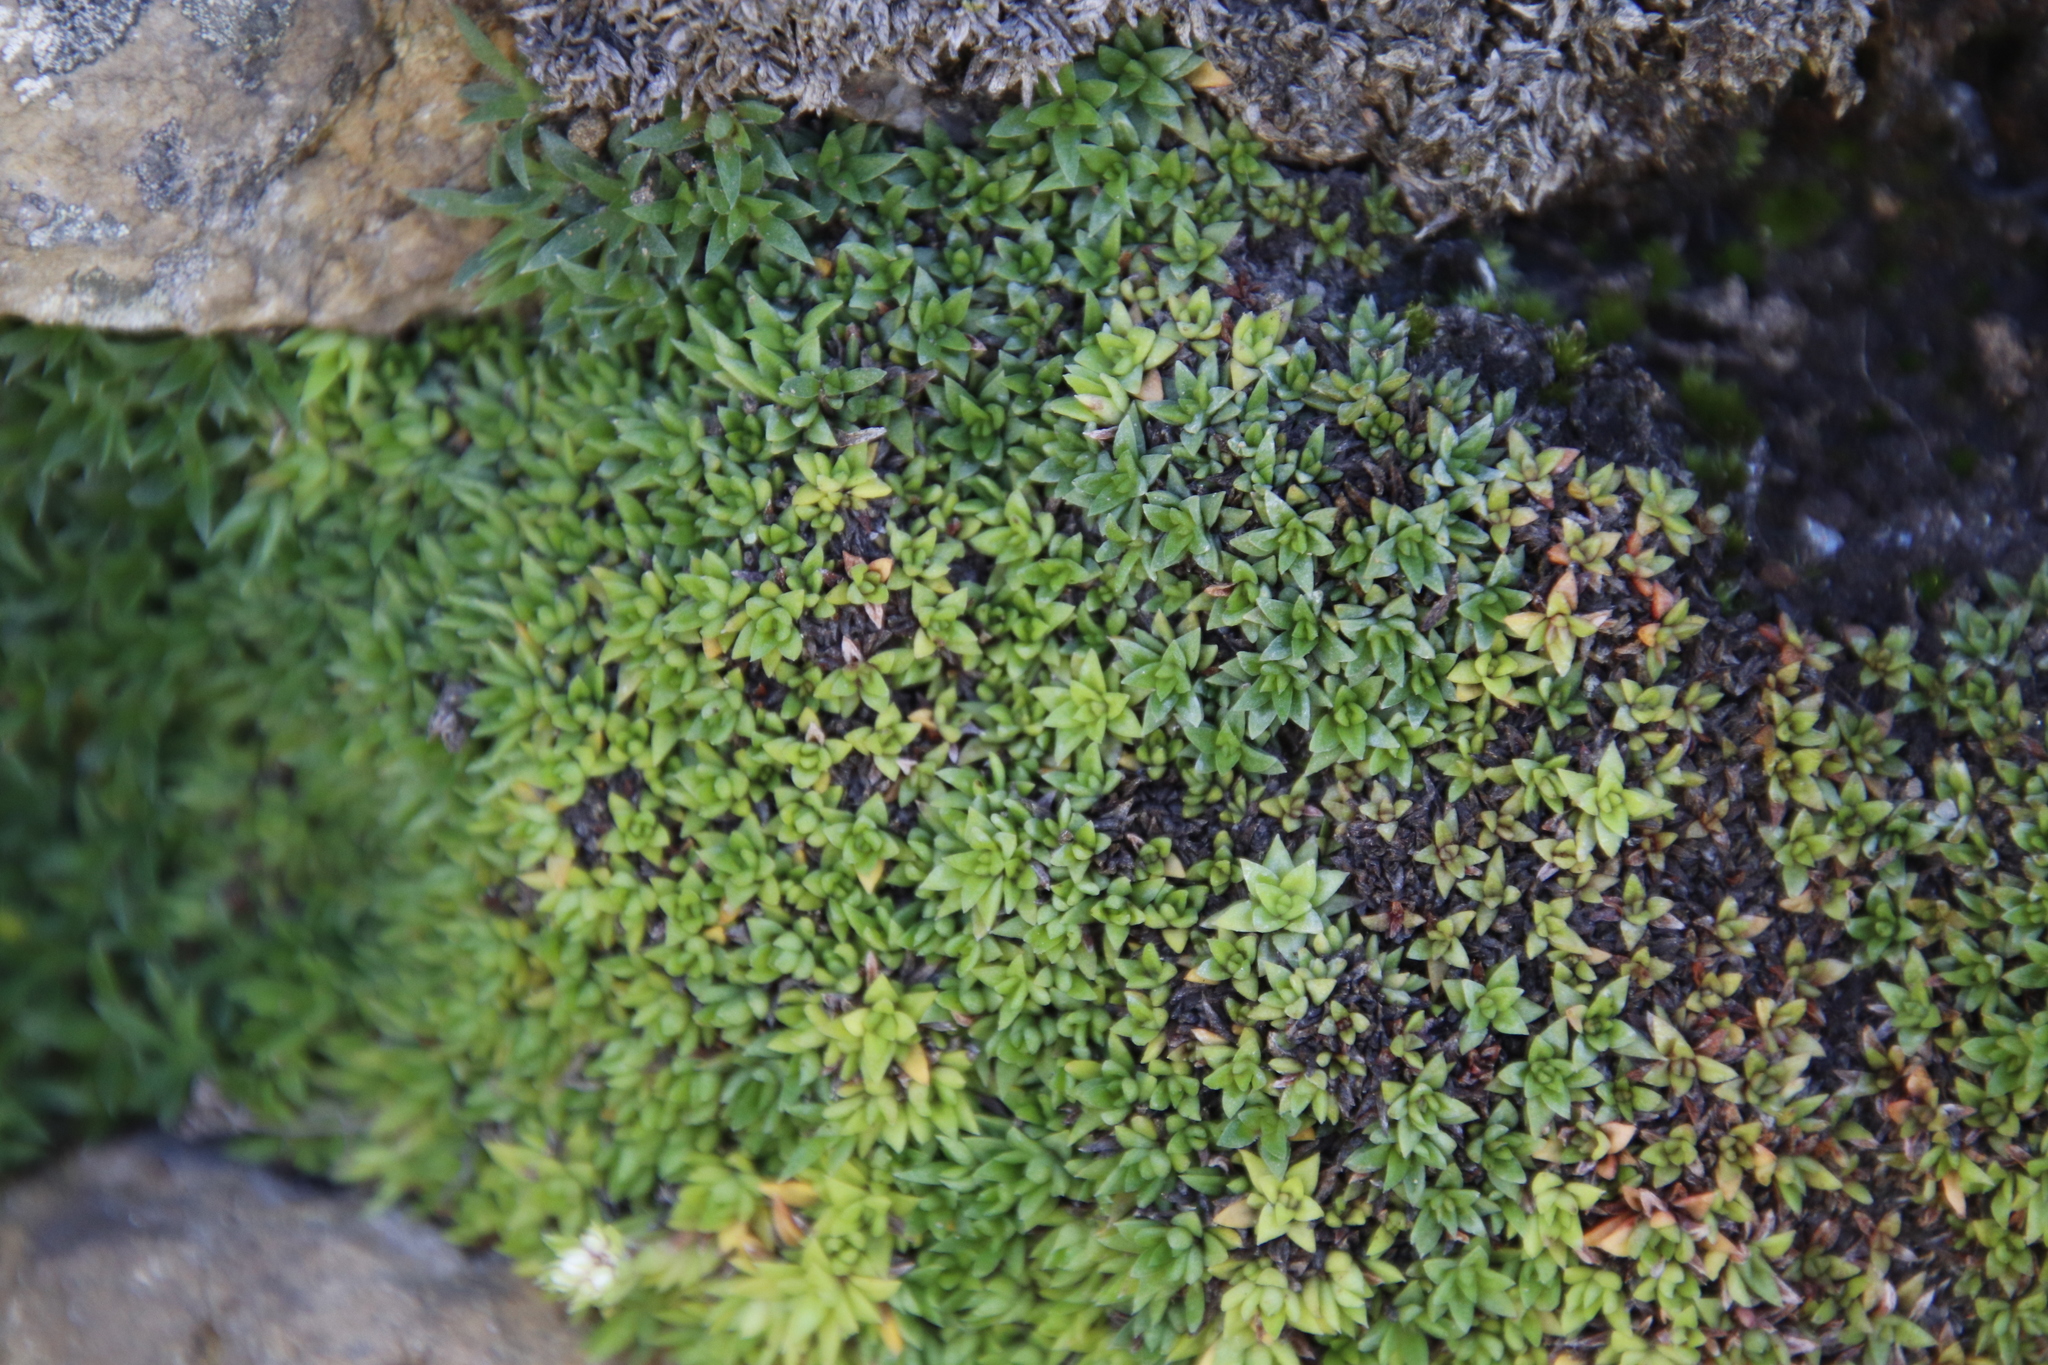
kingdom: Plantae
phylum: Tracheophyta
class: Magnoliopsida
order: Saxifragales
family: Crassulaceae
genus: Crassula
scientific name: Crassula setulosa
